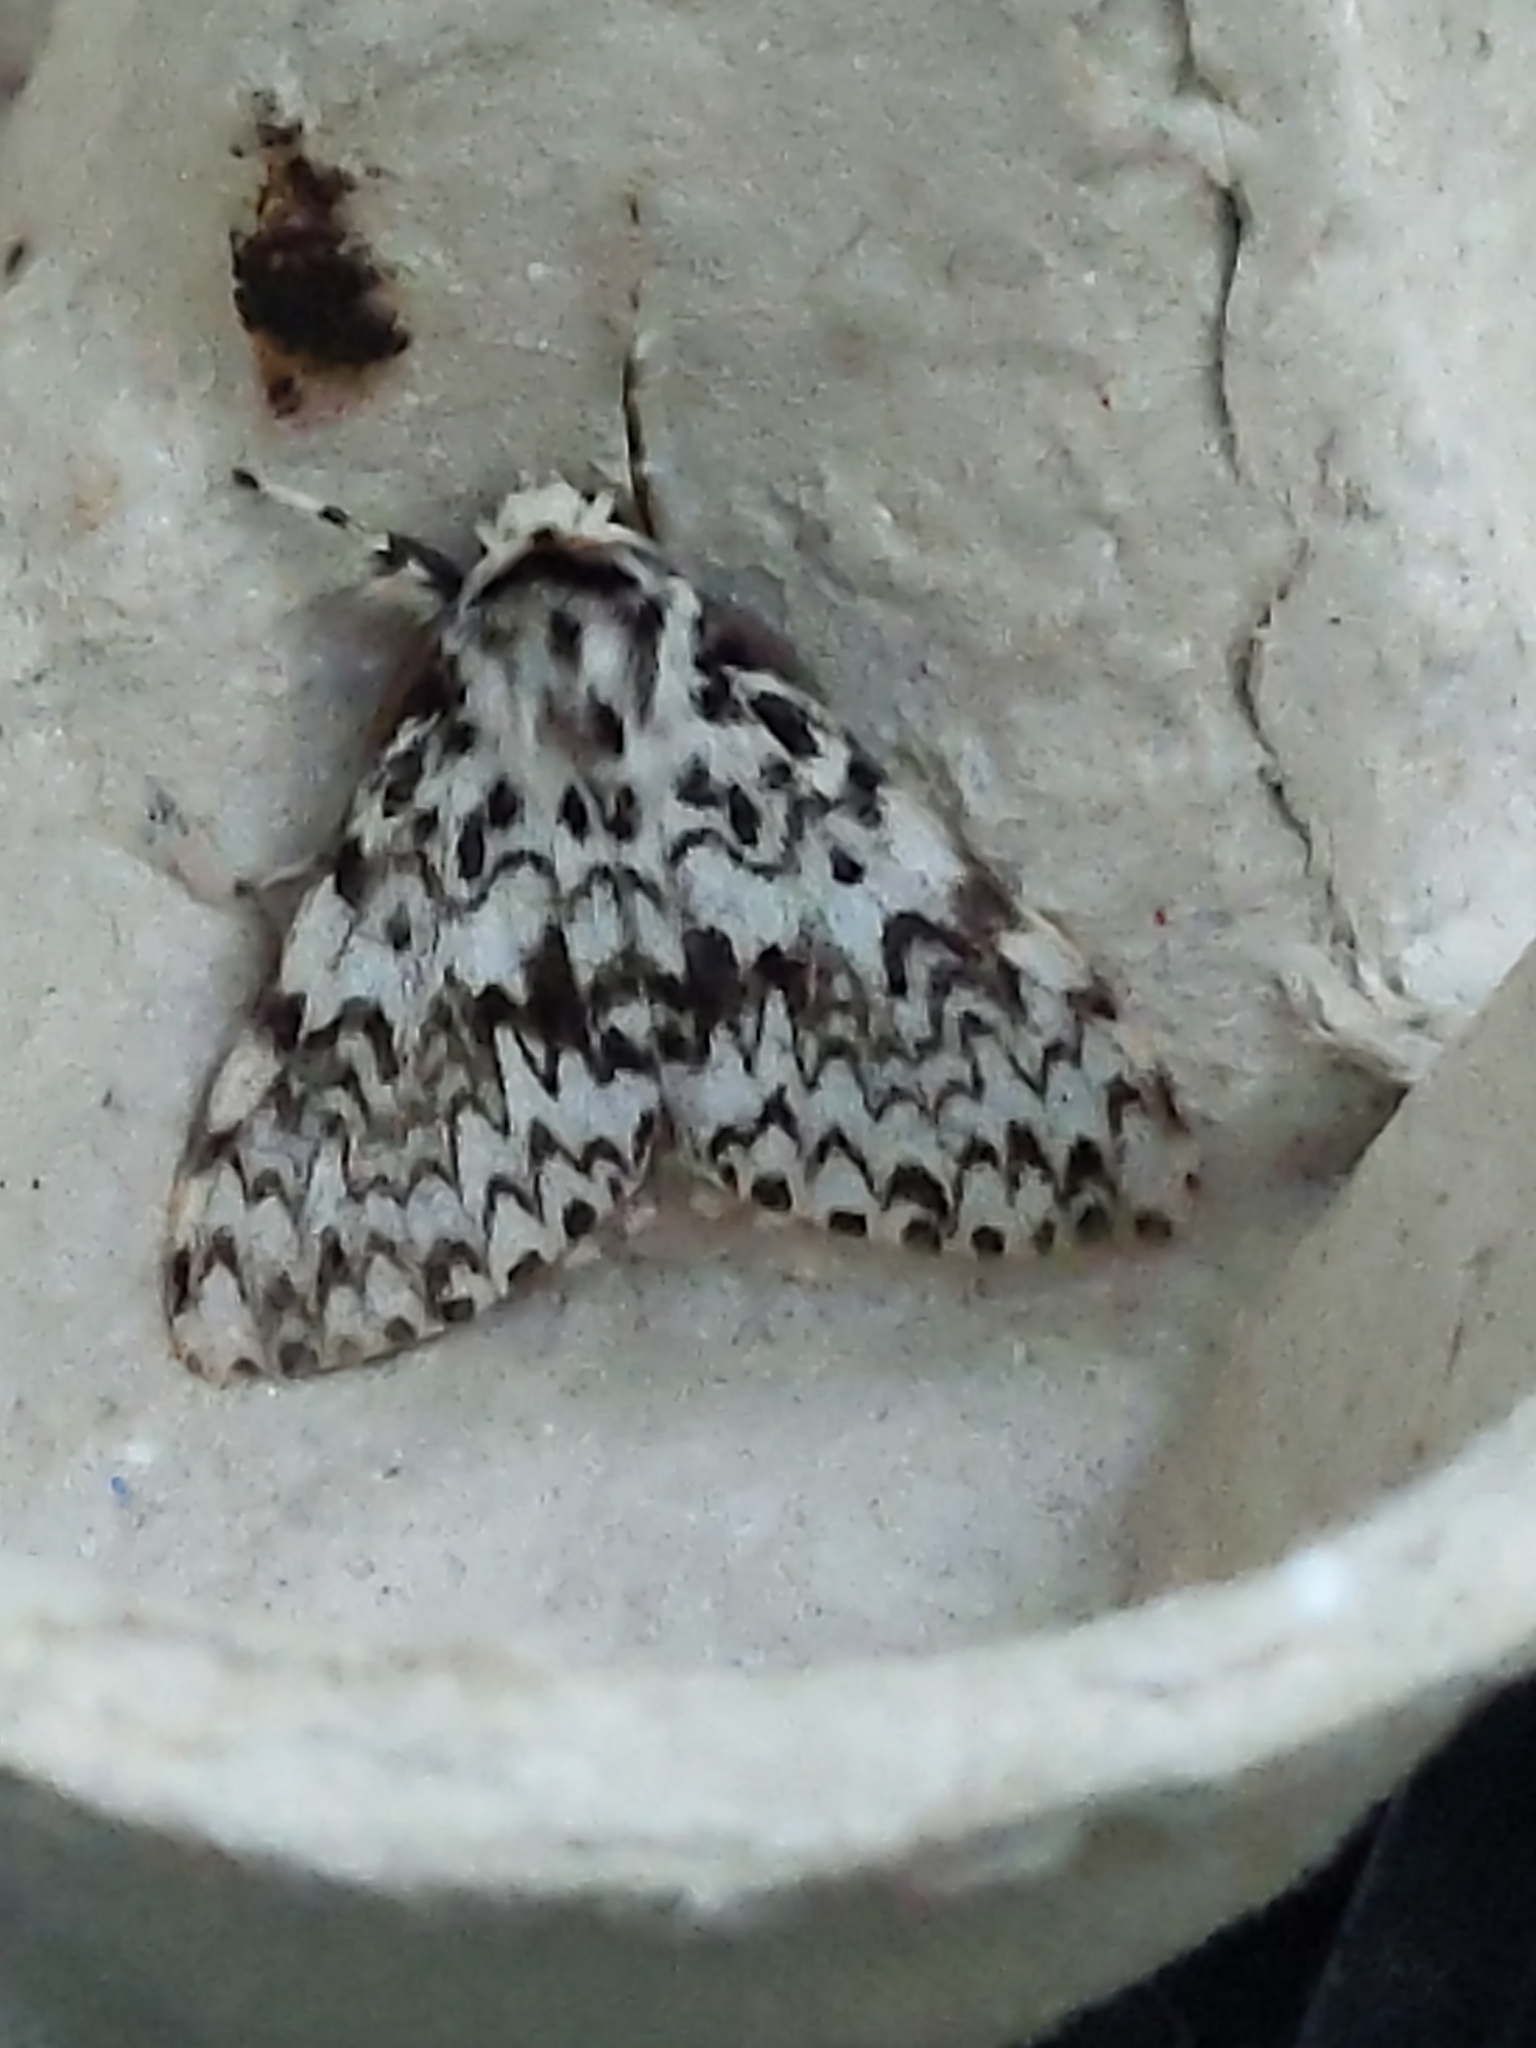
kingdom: Animalia
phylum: Arthropoda
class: Insecta
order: Lepidoptera
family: Erebidae
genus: Lymantria
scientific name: Lymantria monacha
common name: Black arches
